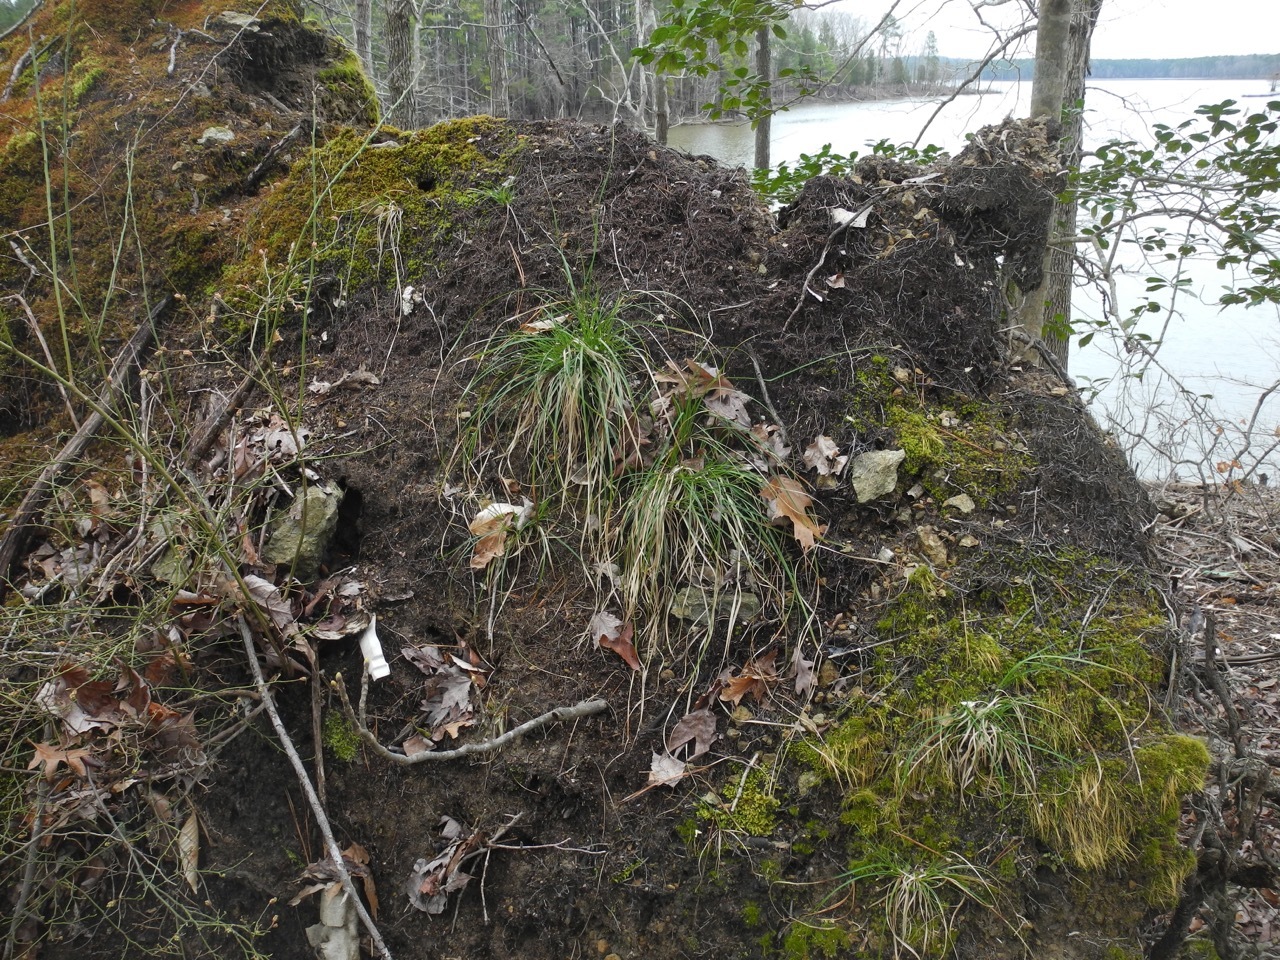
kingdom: Plantae
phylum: Tracheophyta
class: Liliopsida
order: Poales
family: Cyperaceae
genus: Carex
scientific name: Carex nigromarginata
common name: Black-edged sedge
